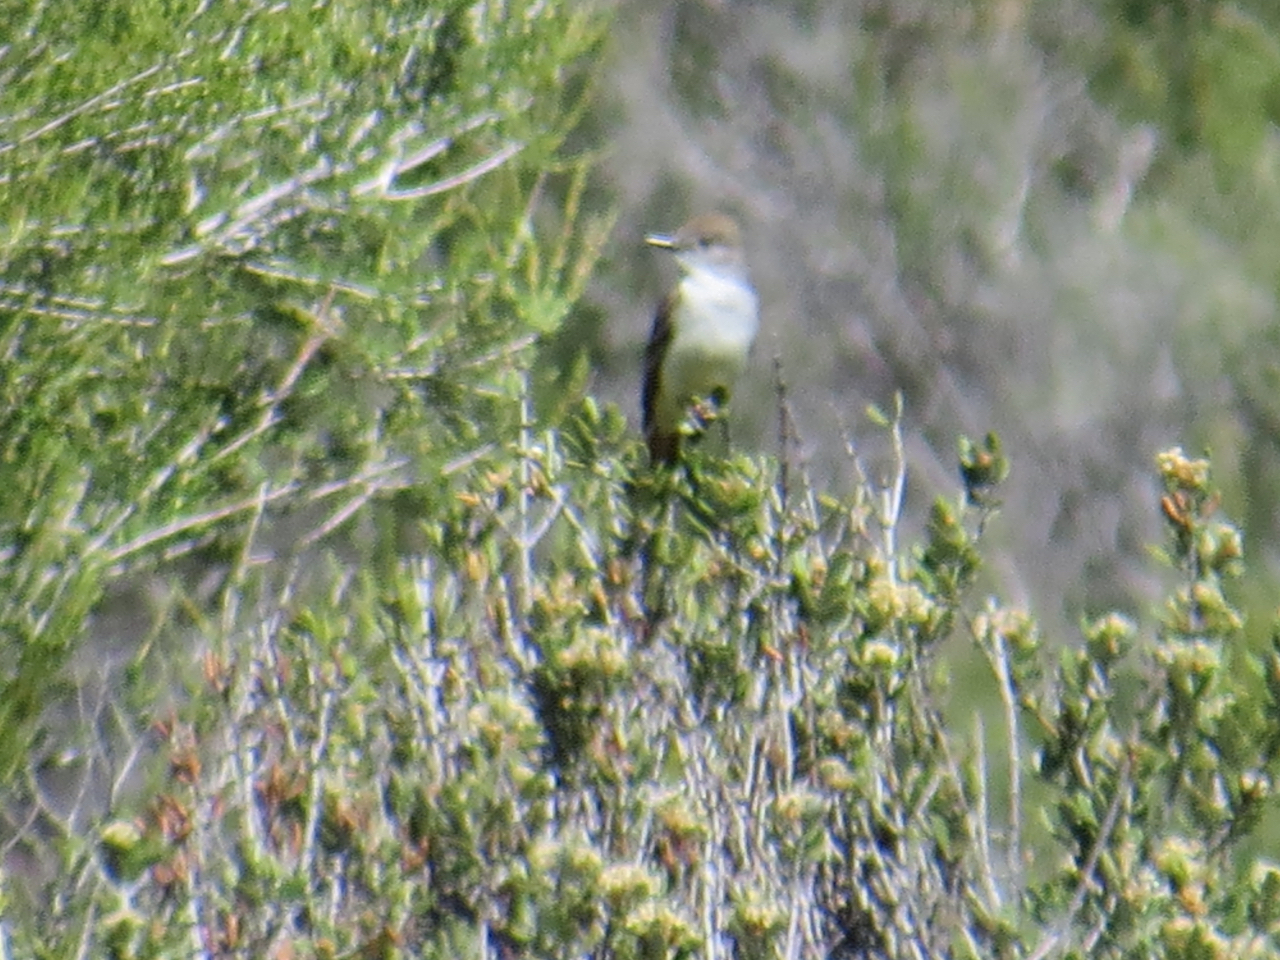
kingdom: Animalia
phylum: Chordata
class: Aves
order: Passeriformes
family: Tyrannidae
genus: Myiarchus
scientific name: Myiarchus cinerascens
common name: Ash-throated flycatcher
